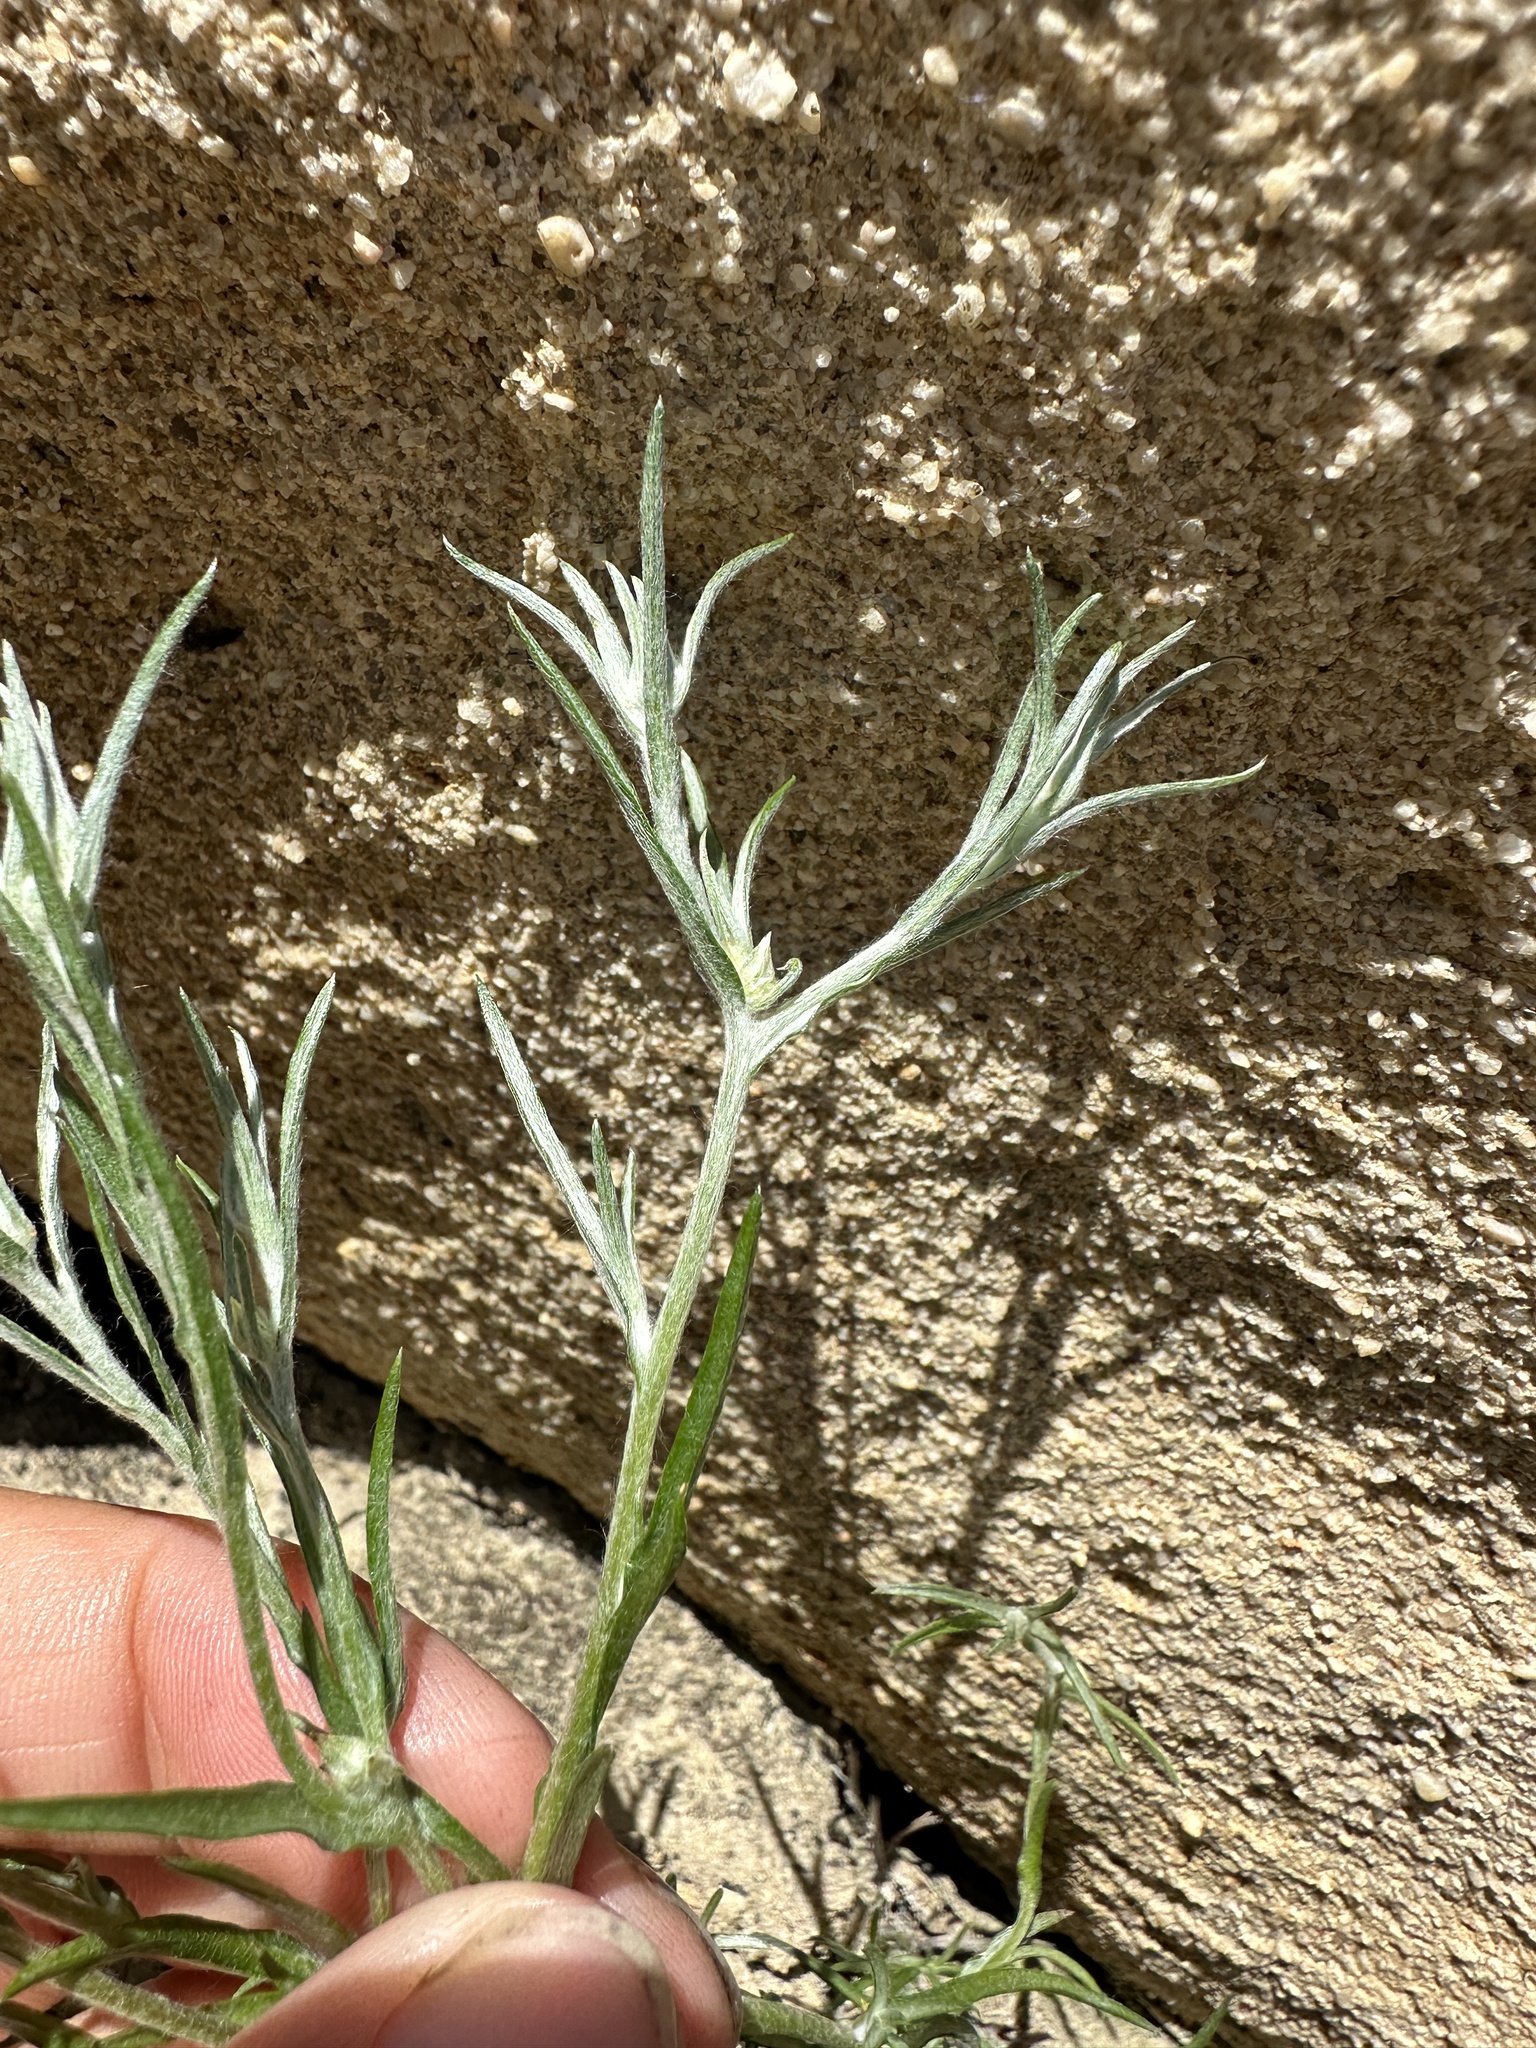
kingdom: Plantae
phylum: Tracheophyta
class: Magnoliopsida
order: Asterales
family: Asteraceae
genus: Logfia
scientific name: Logfia gallica
